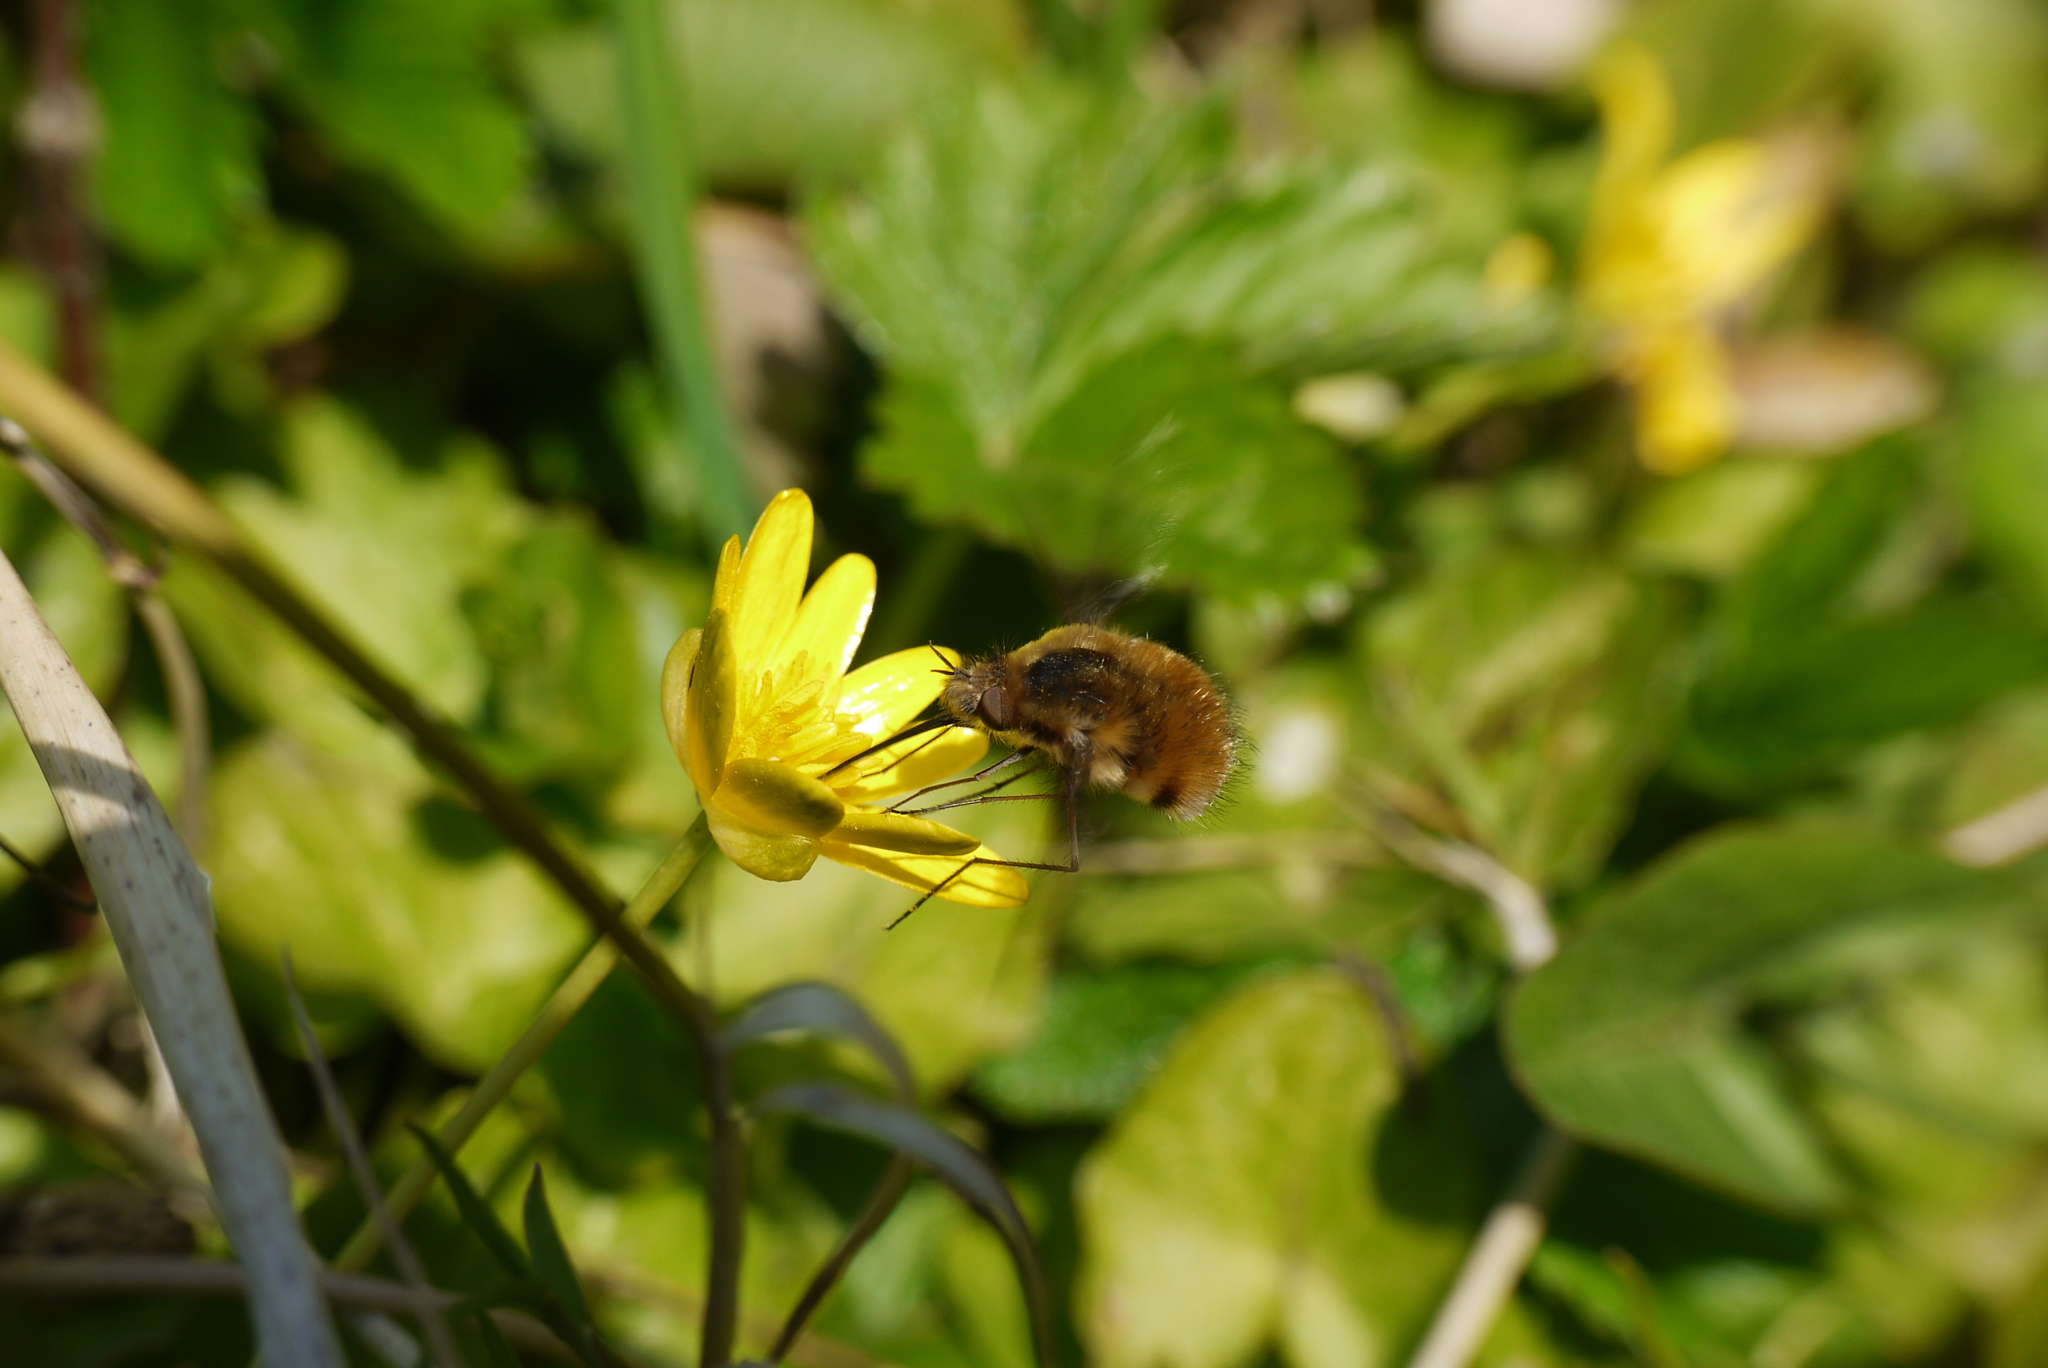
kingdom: Animalia
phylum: Arthropoda
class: Insecta
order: Diptera
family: Bombyliidae
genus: Bombylius
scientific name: Bombylius major
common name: Bee fly
